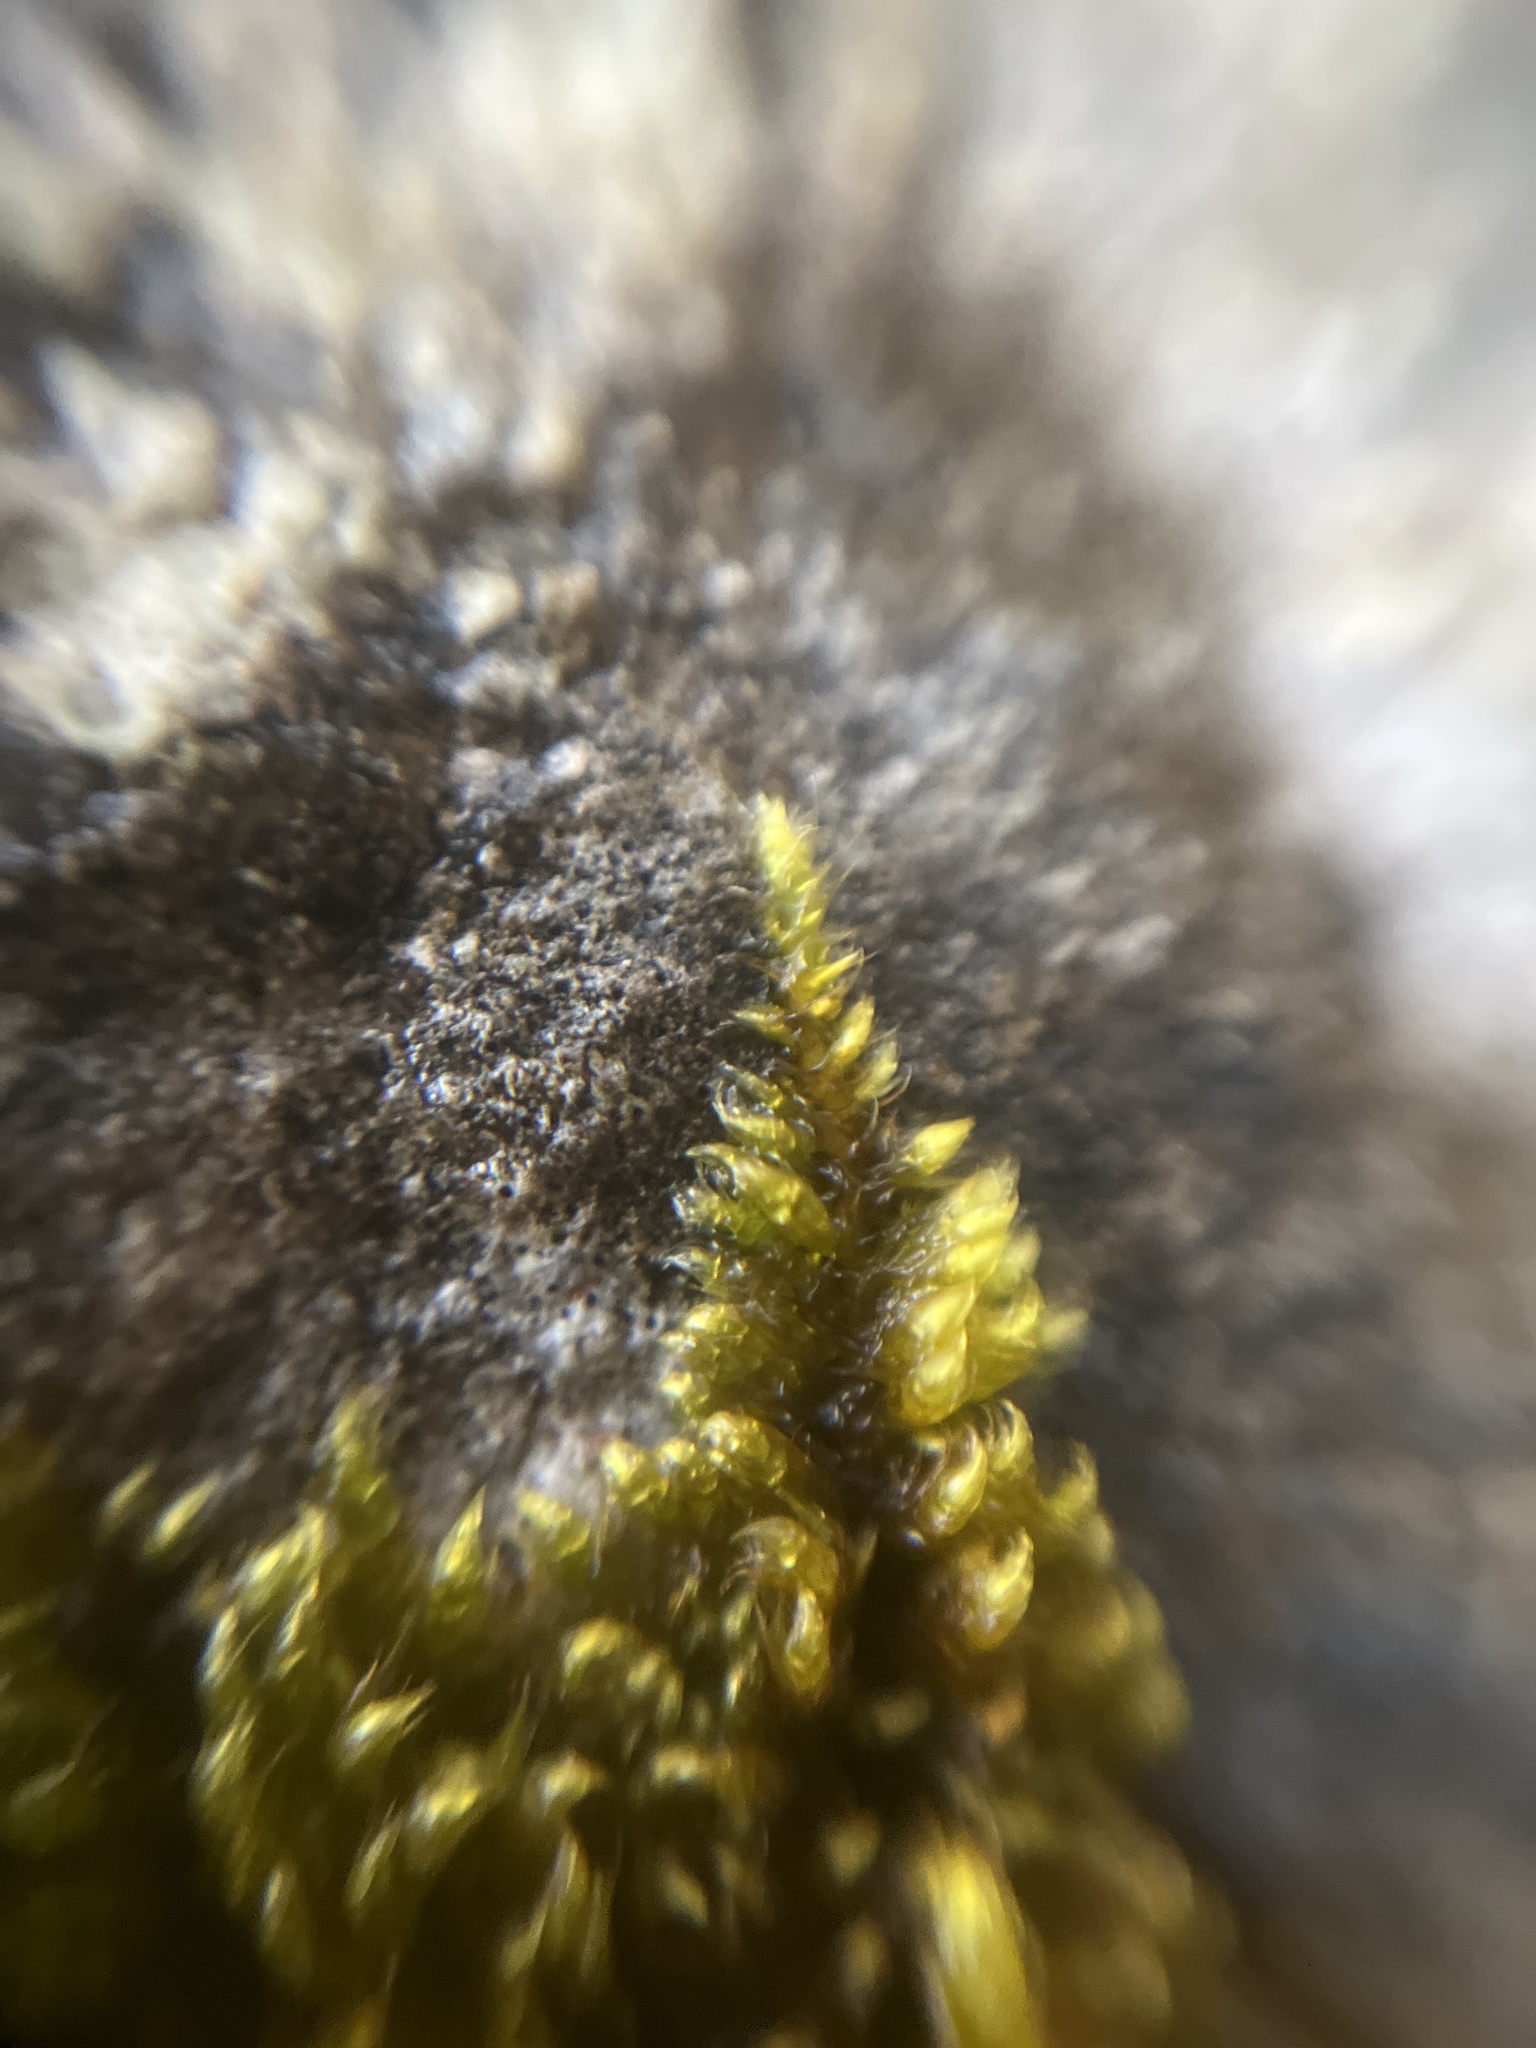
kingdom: Plantae
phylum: Bryophyta
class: Bryopsida
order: Hypnales
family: Myuriaceae
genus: Ctenidium
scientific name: Ctenidium molluscum
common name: Chalk comb-moss
